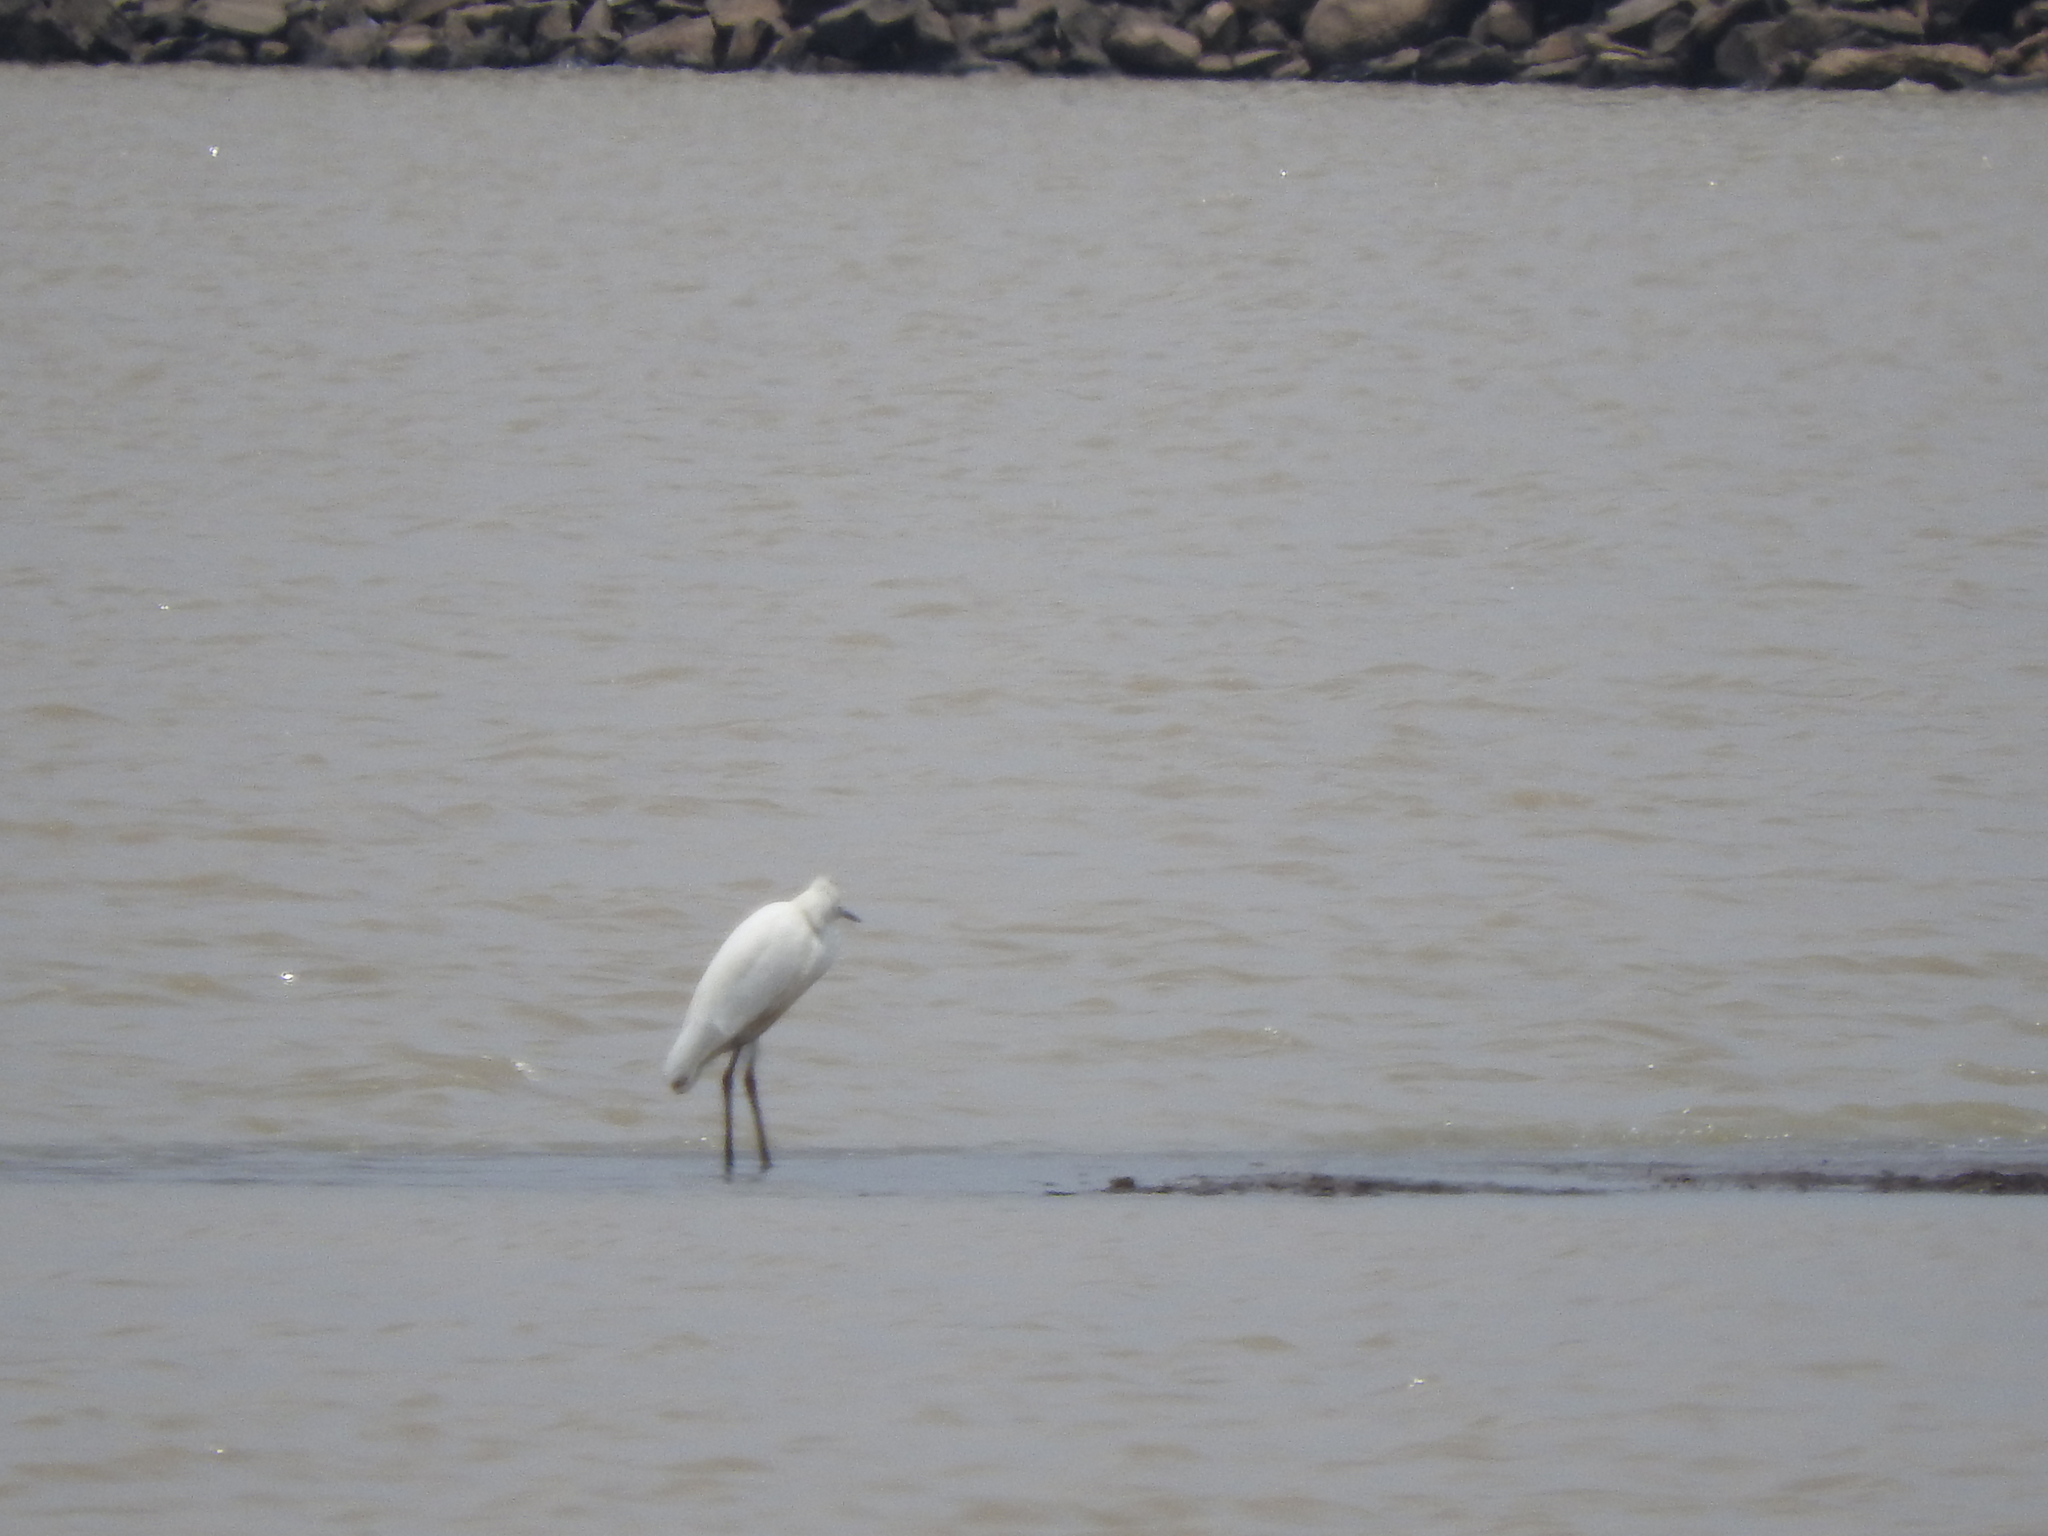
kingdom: Animalia
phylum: Chordata
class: Aves
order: Pelecaniformes
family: Ardeidae
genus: Egretta
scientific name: Egretta thula
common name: Snowy egret
